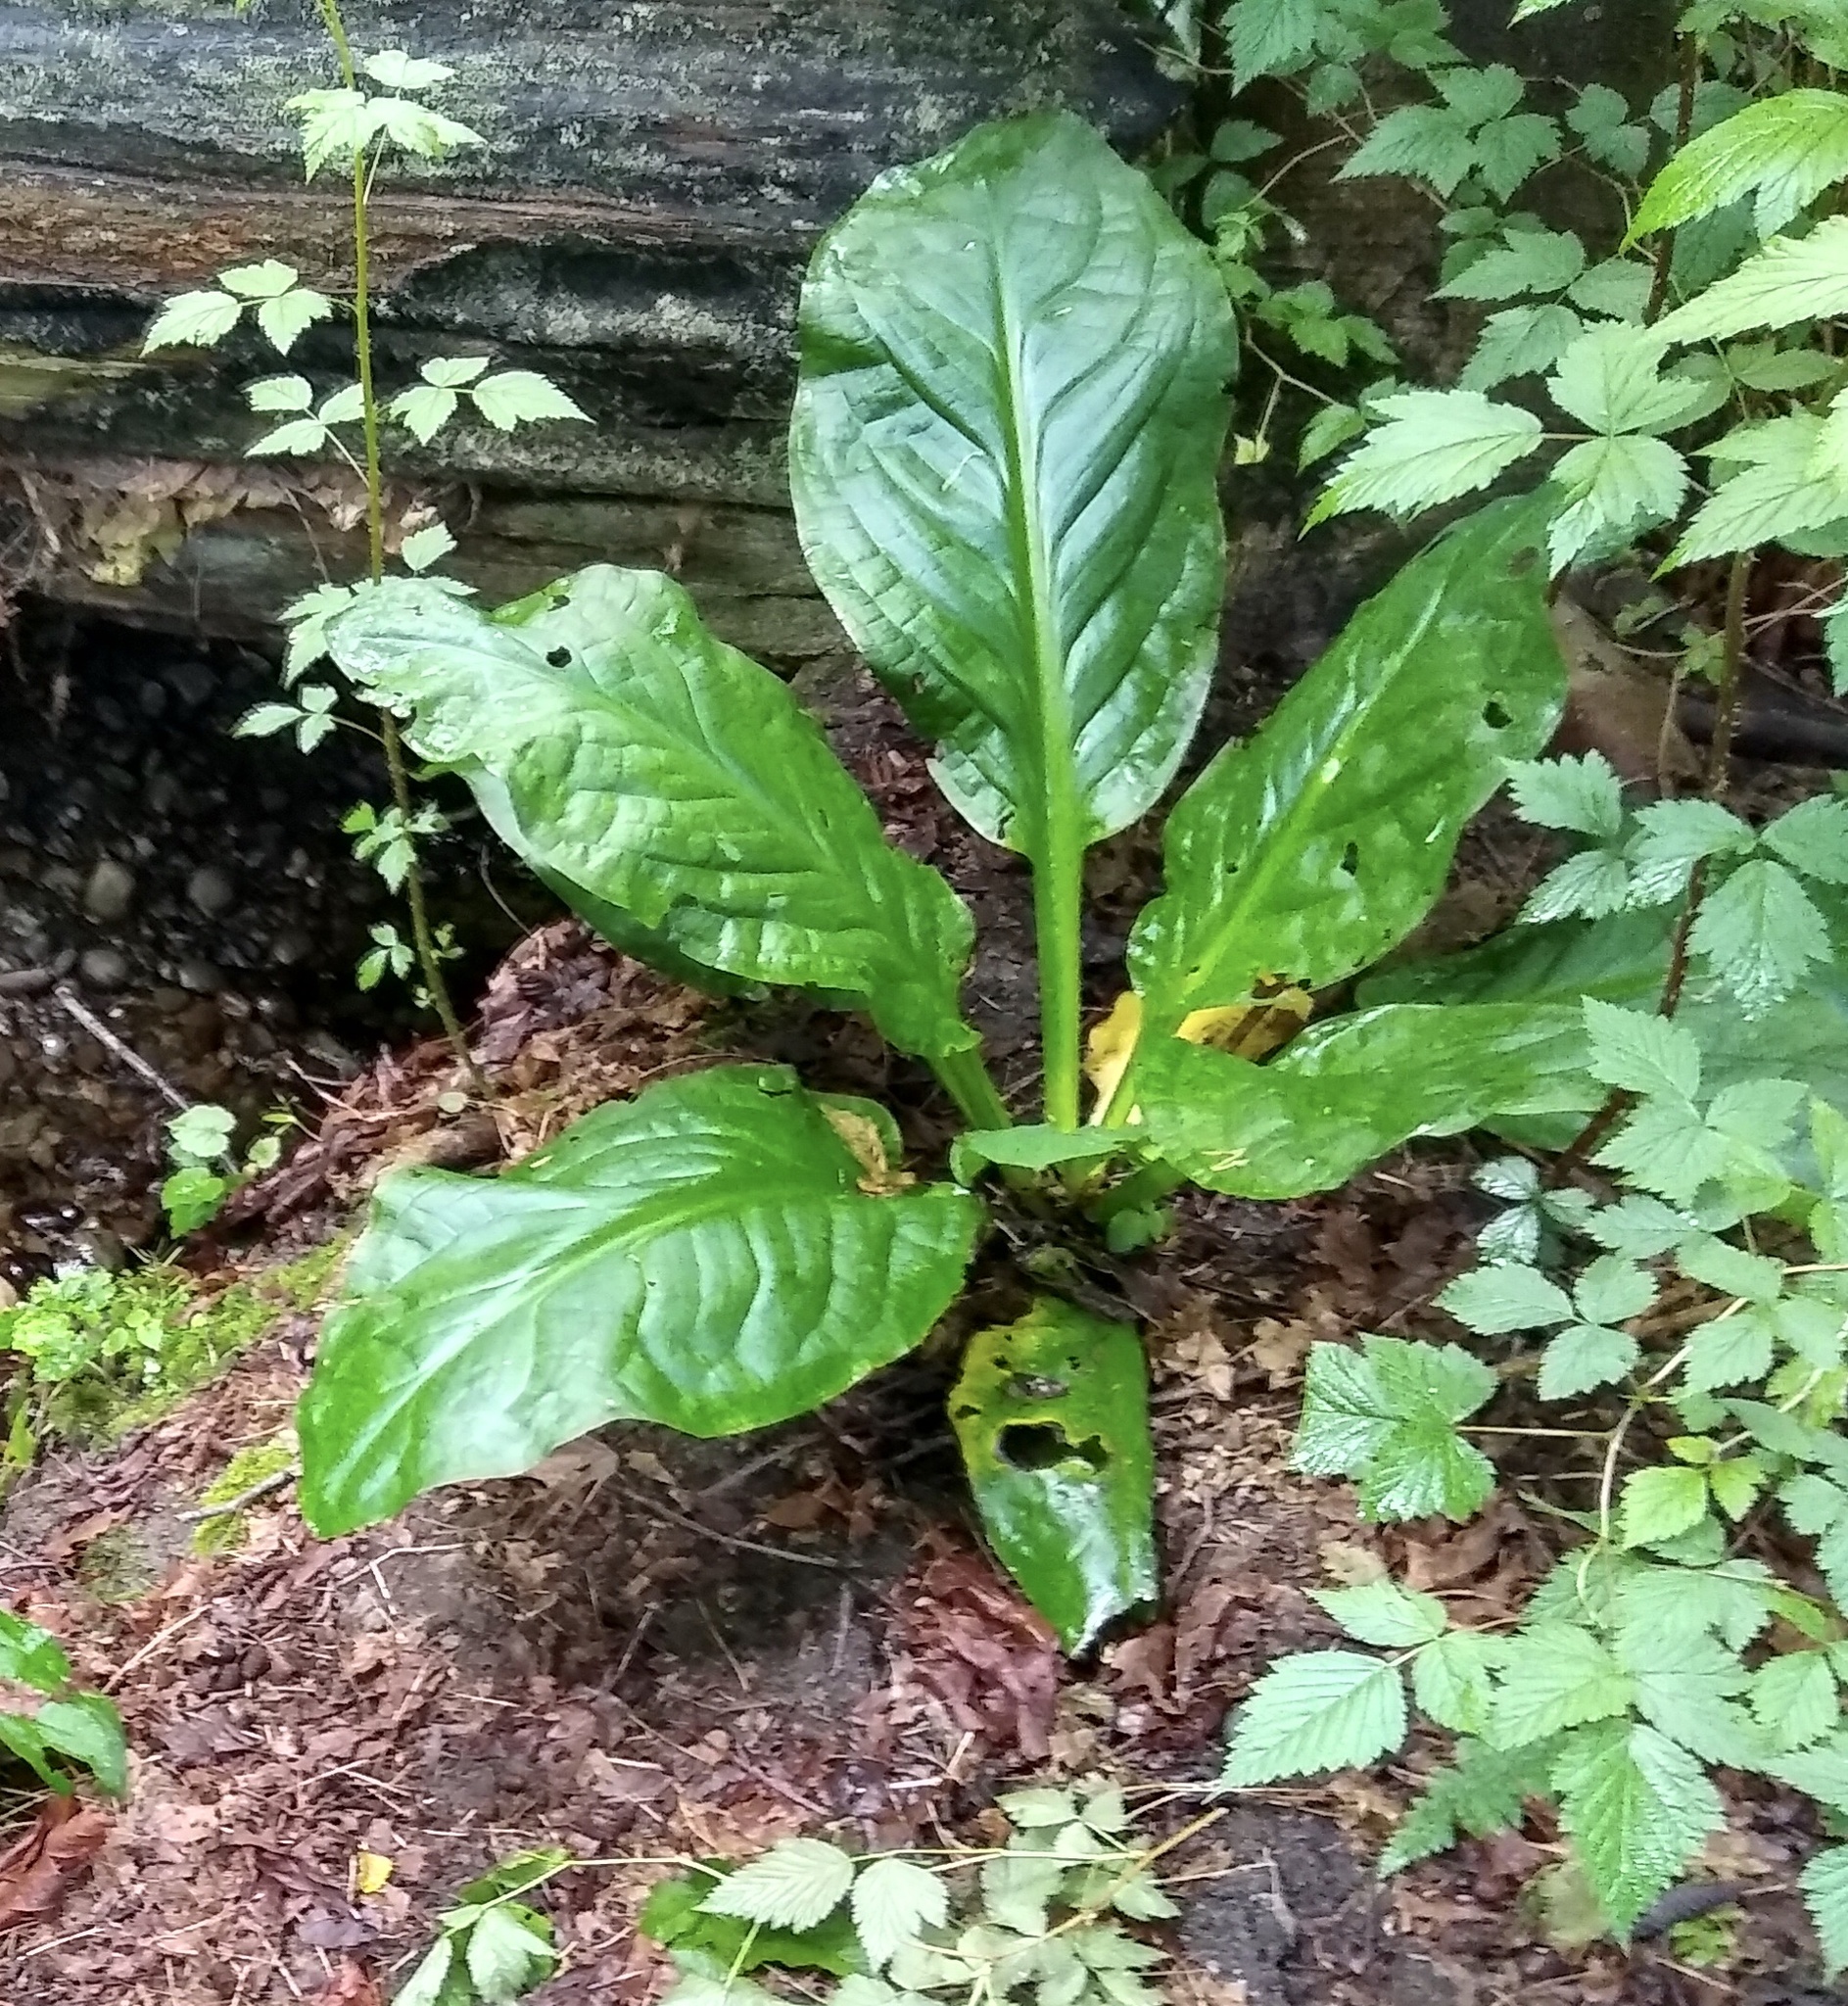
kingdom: Plantae
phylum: Tracheophyta
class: Liliopsida
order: Alismatales
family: Araceae
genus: Lysichiton
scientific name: Lysichiton americanus
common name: American skunk cabbage
